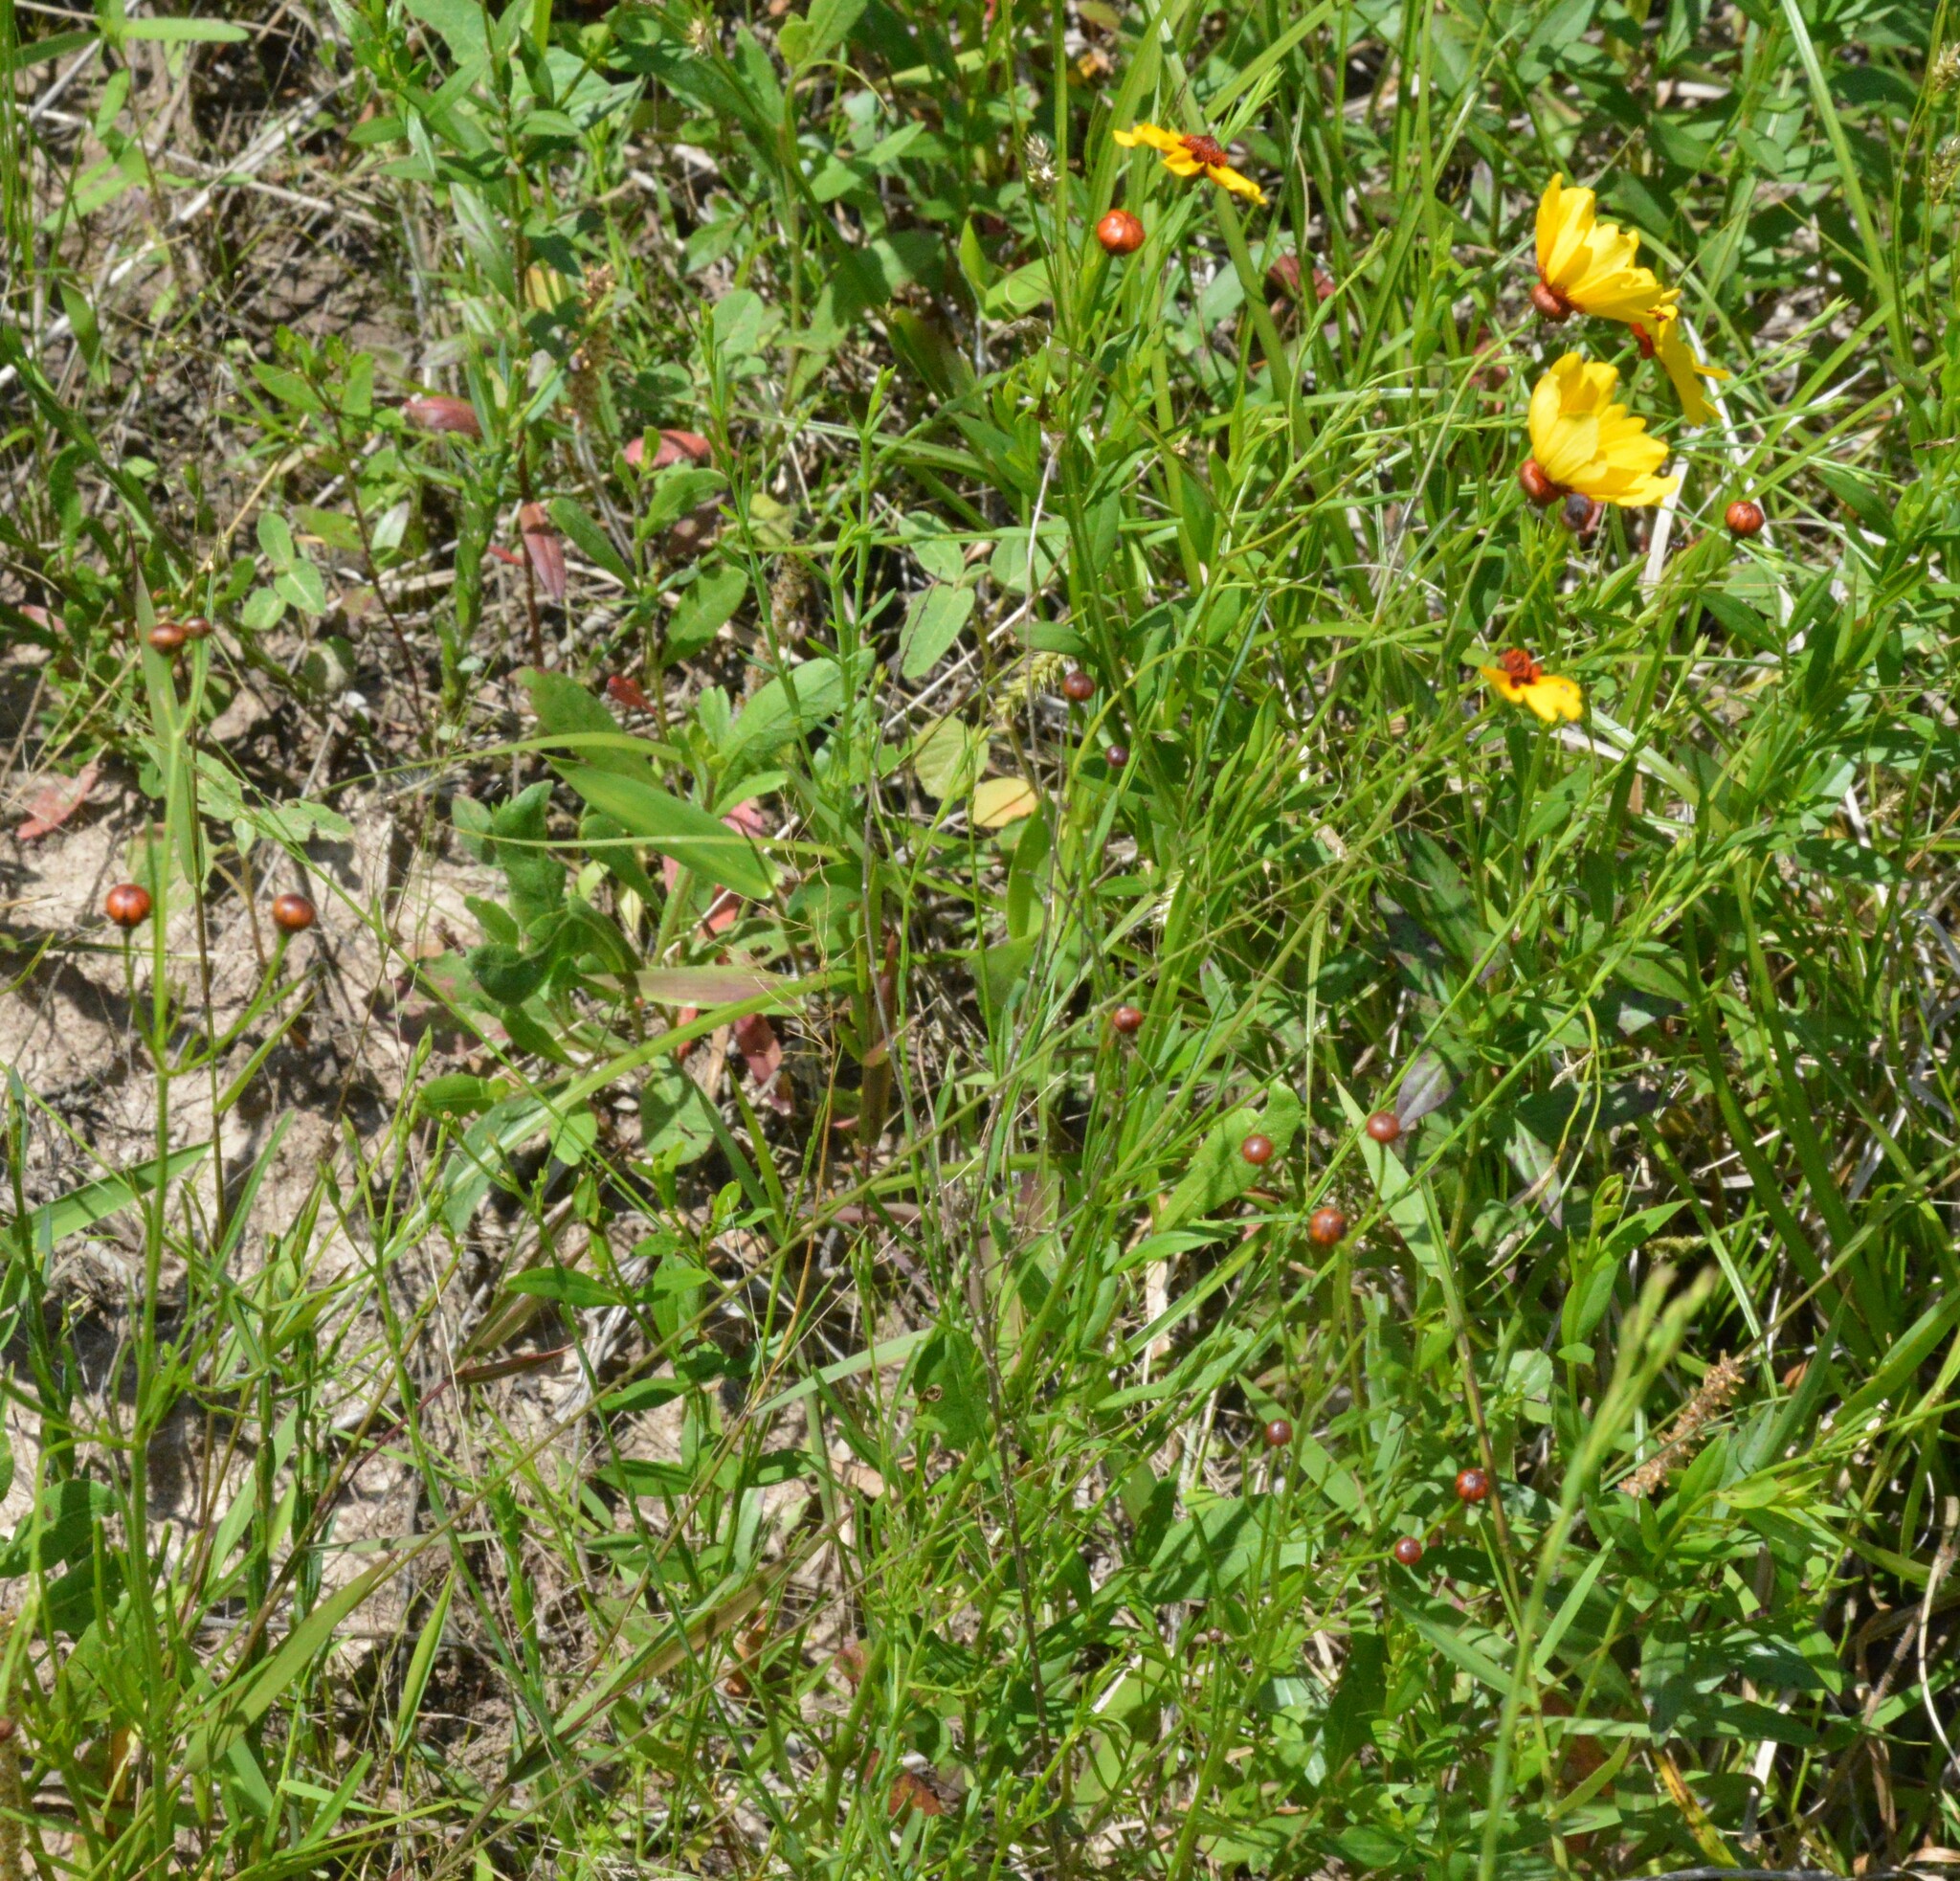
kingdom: Plantae
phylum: Tracheophyta
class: Magnoliopsida
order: Asterales
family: Asteraceae
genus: Coreopsis
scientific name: Coreopsis tinctoria
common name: Garden tickseed
